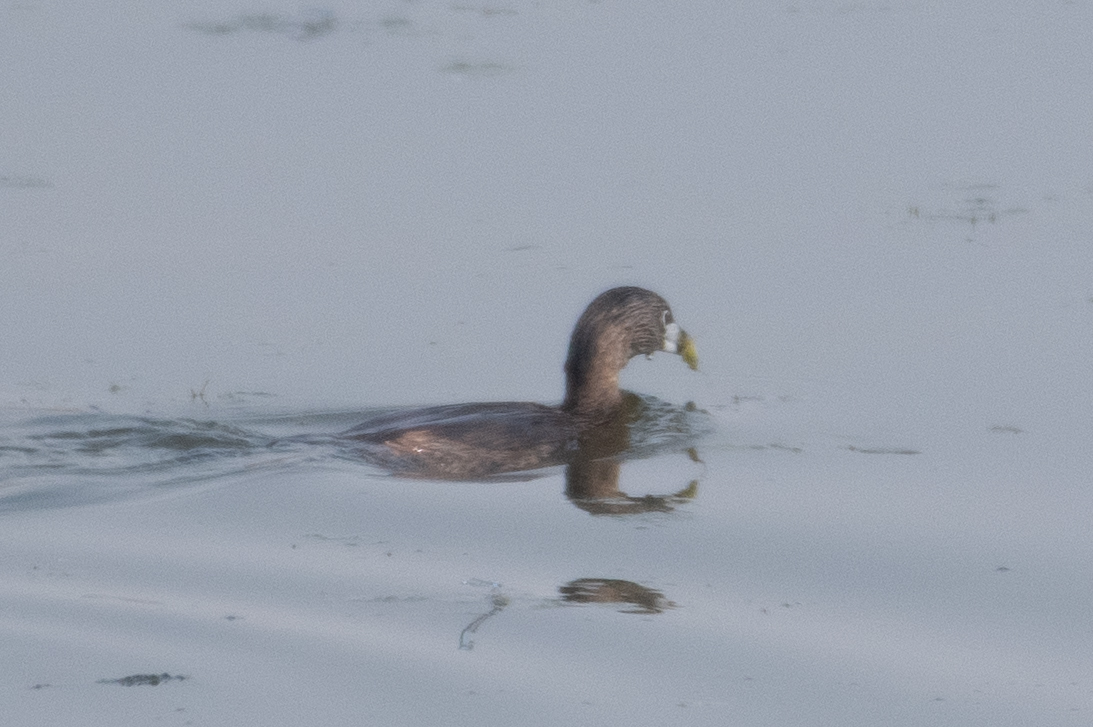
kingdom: Animalia
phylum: Chordata
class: Aves
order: Podicipediformes
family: Podicipedidae
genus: Podilymbus
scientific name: Podilymbus podiceps
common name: Pied-billed grebe
